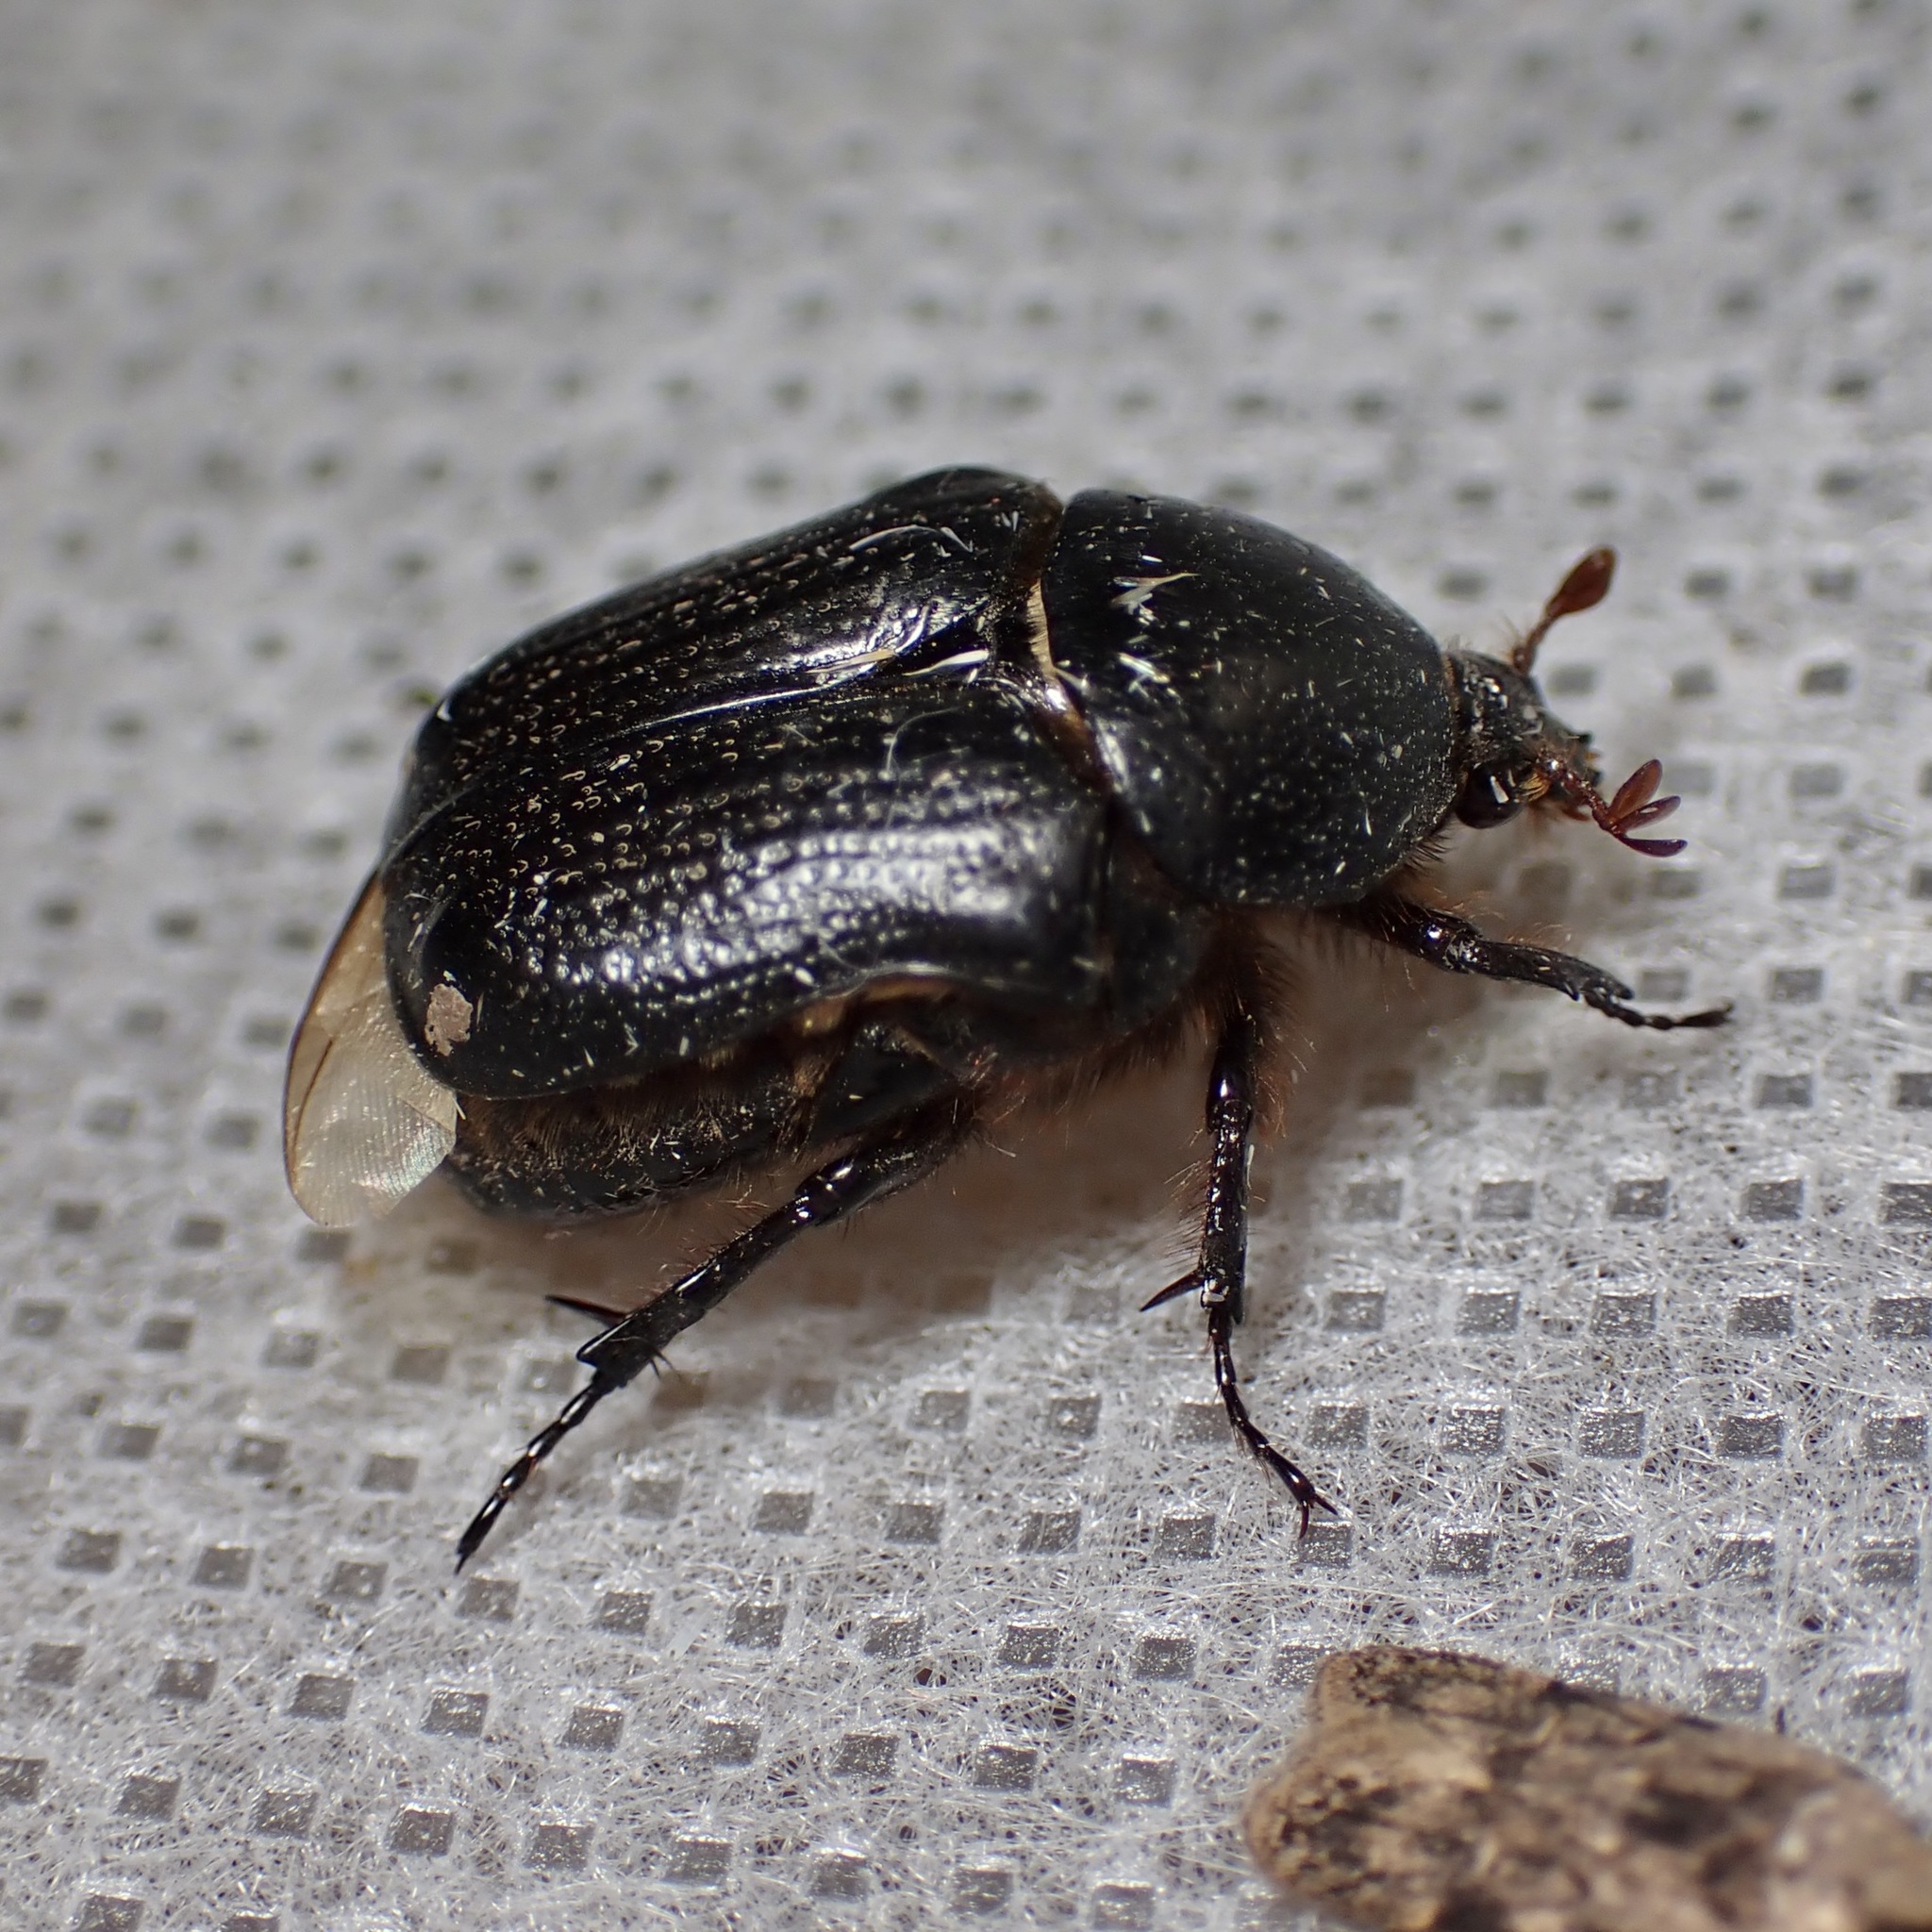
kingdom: Animalia
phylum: Arthropoda
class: Insecta
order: Coleoptera
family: Scarabaeidae
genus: Euphoria
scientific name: Euphoria verticalis
